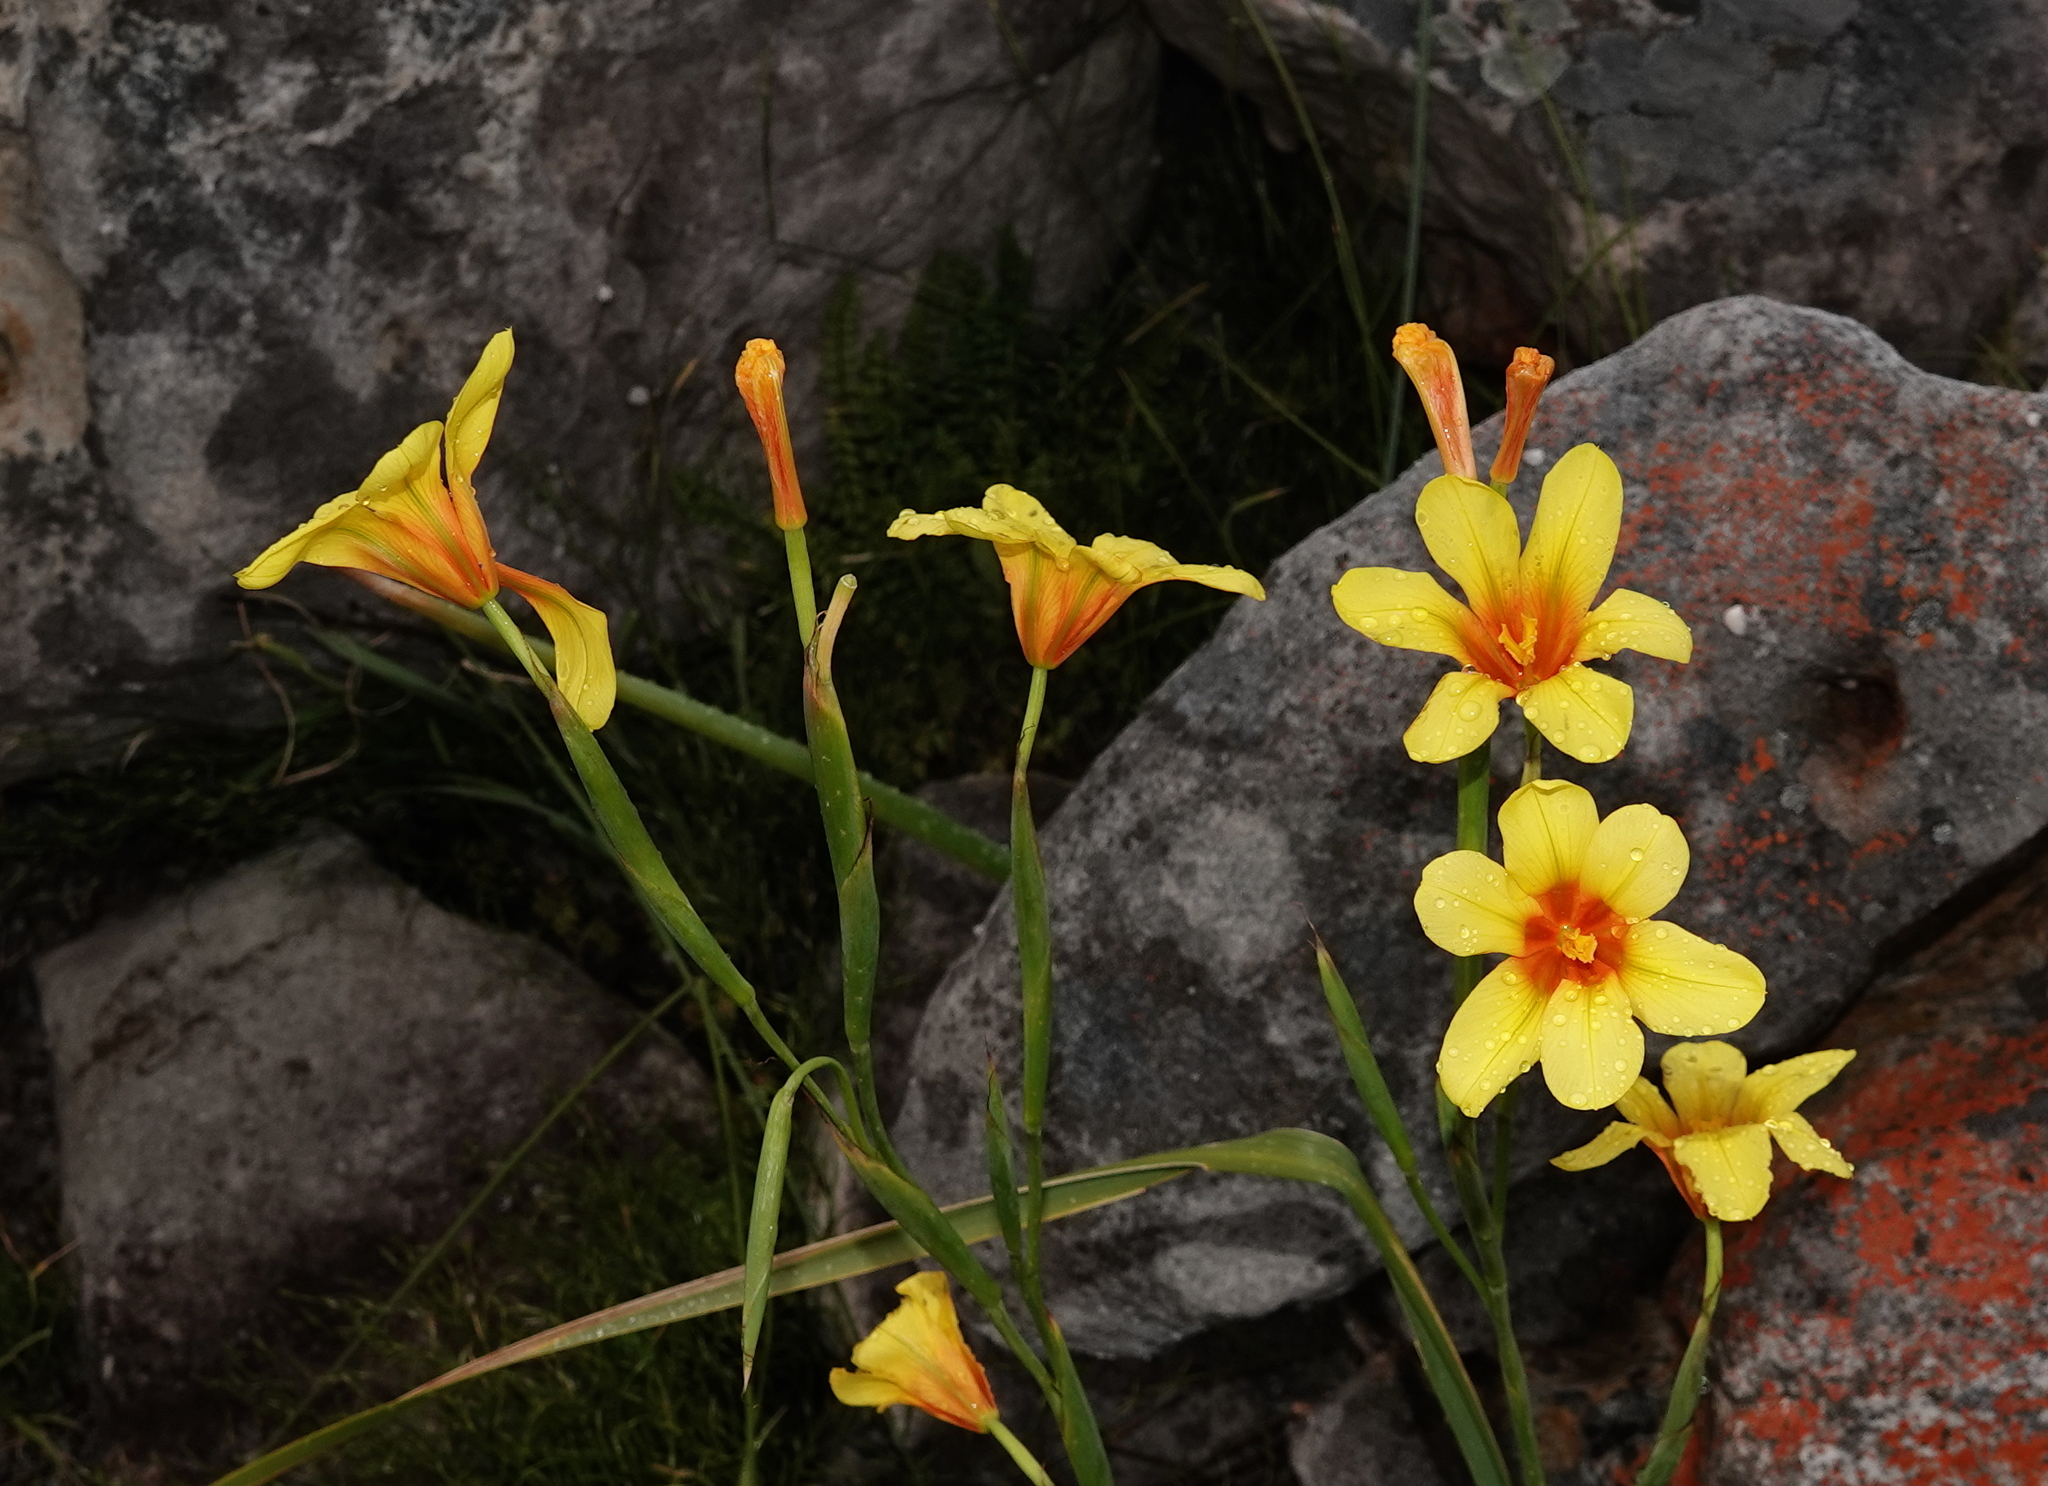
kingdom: Plantae
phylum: Tracheophyta
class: Liliopsida
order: Asparagales
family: Iridaceae
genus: Moraea
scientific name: Moraea ochroleuca
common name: Red tulp
